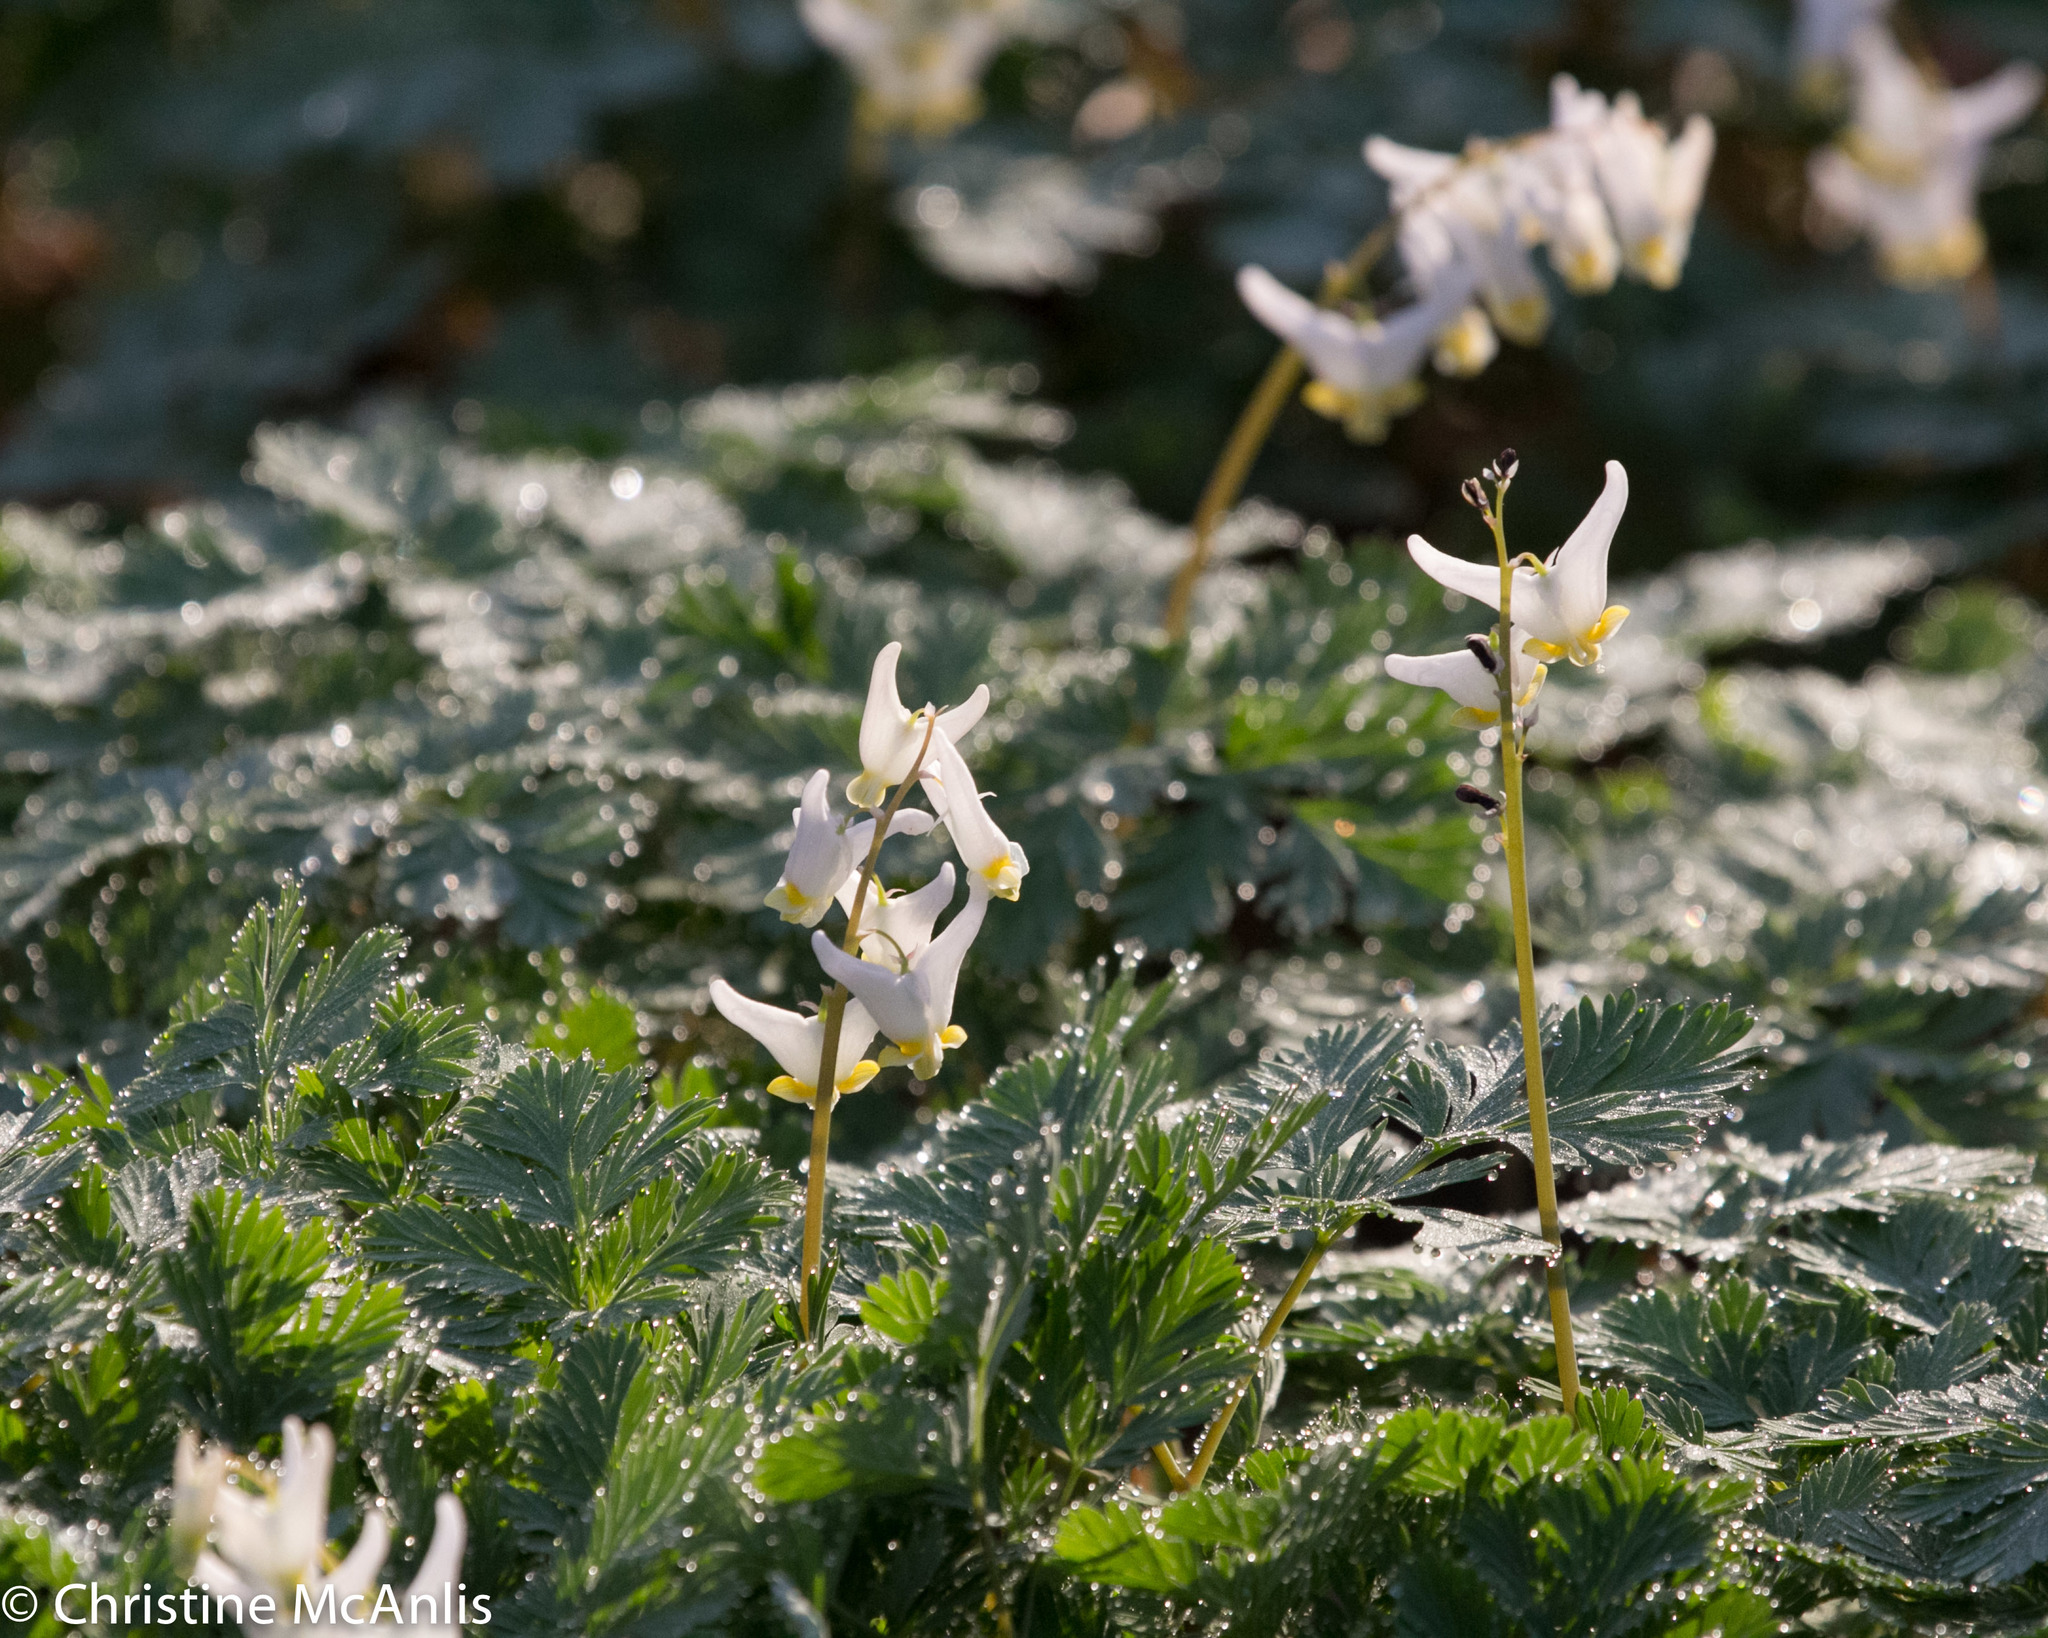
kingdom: Plantae
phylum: Tracheophyta
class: Magnoliopsida
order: Ranunculales
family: Papaveraceae
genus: Dicentra
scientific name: Dicentra cucullaria
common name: Dutchman's breeches
